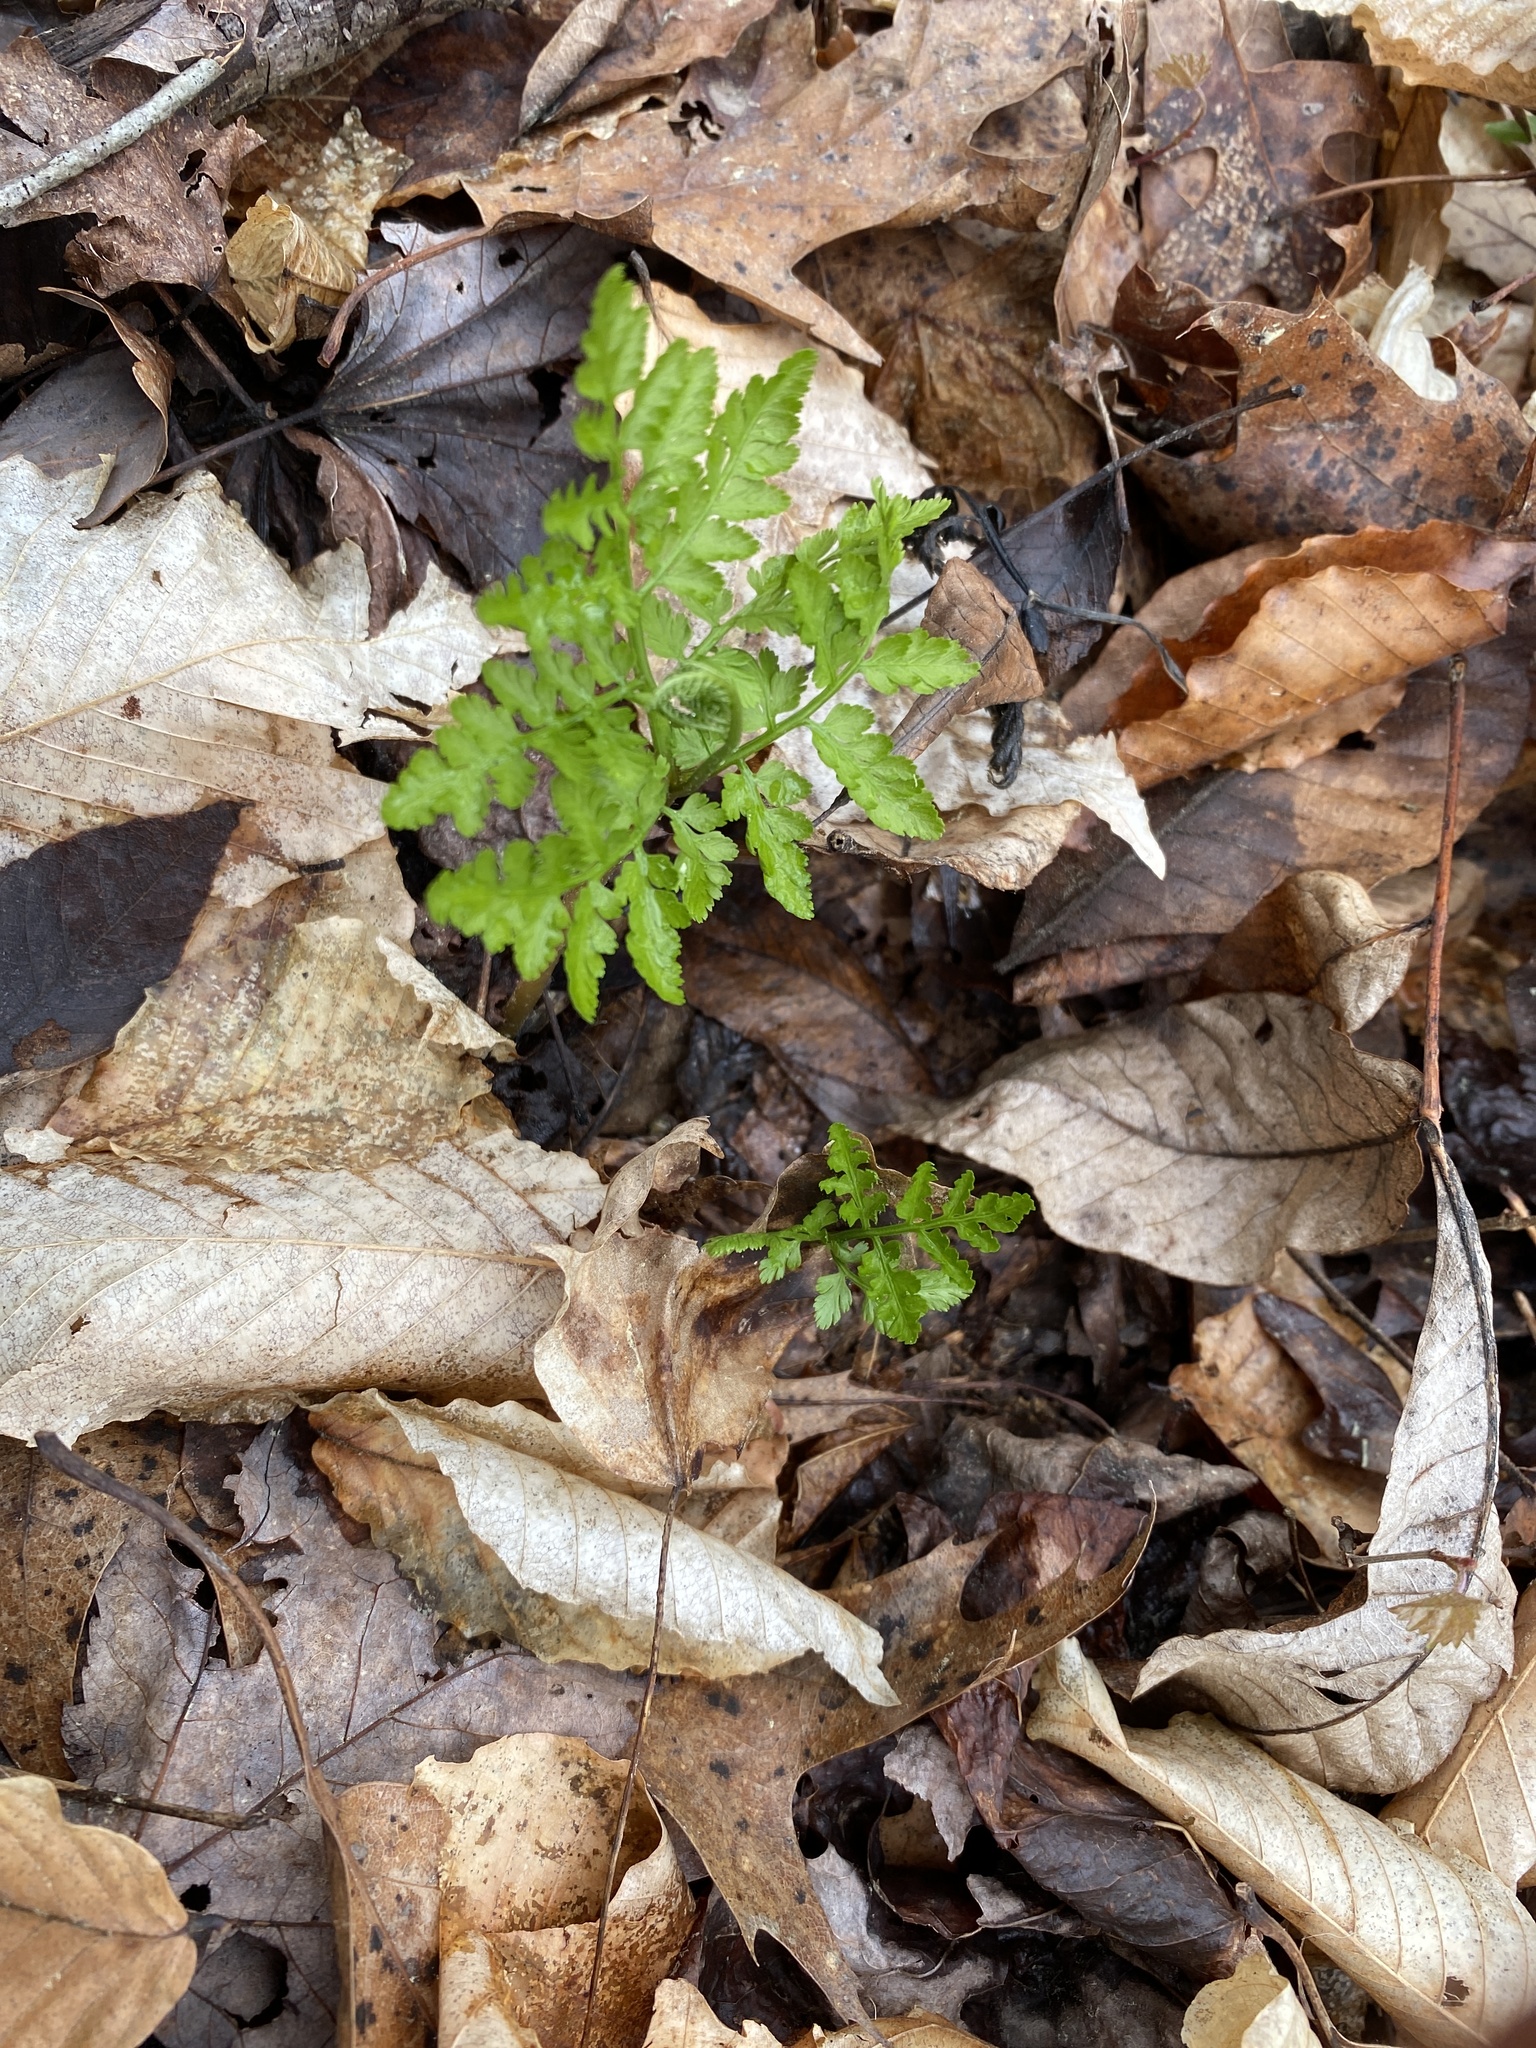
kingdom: Plantae
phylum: Tracheophyta
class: Polypodiopsida
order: Ophioglossales
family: Ophioglossaceae
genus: Botrypus
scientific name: Botrypus virginianus
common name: Common grapefern
